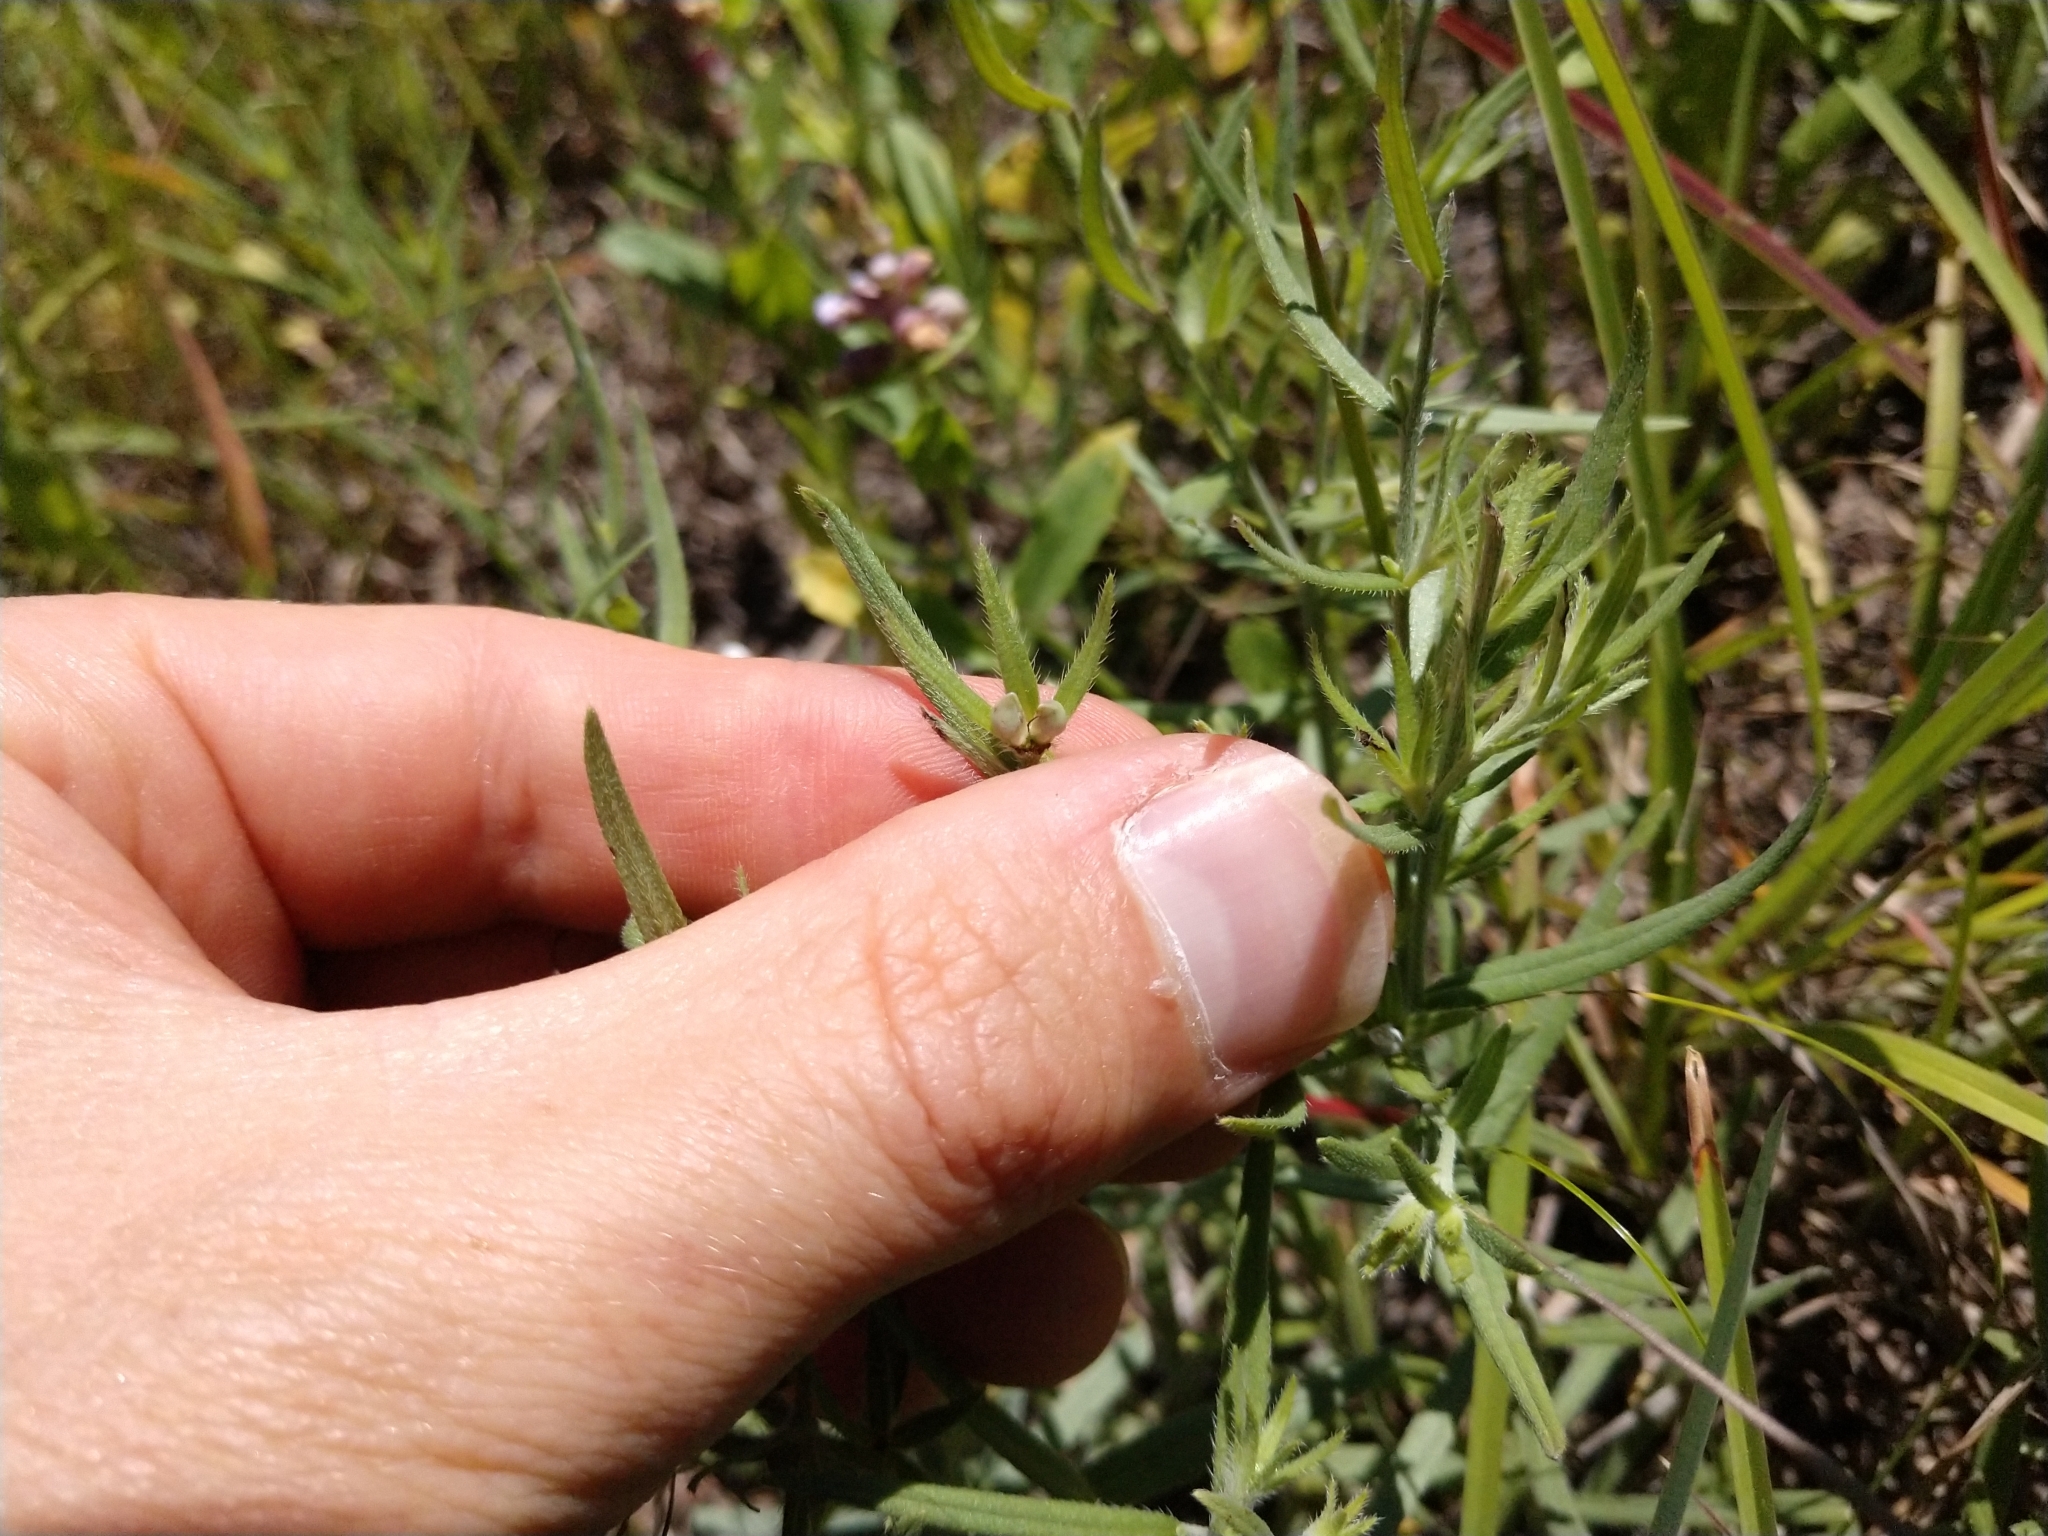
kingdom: Plantae
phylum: Tracheophyta
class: Magnoliopsida
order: Boraginales
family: Boraginaceae
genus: Lithospermum
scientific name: Lithospermum incisum
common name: Fringed gromwell
